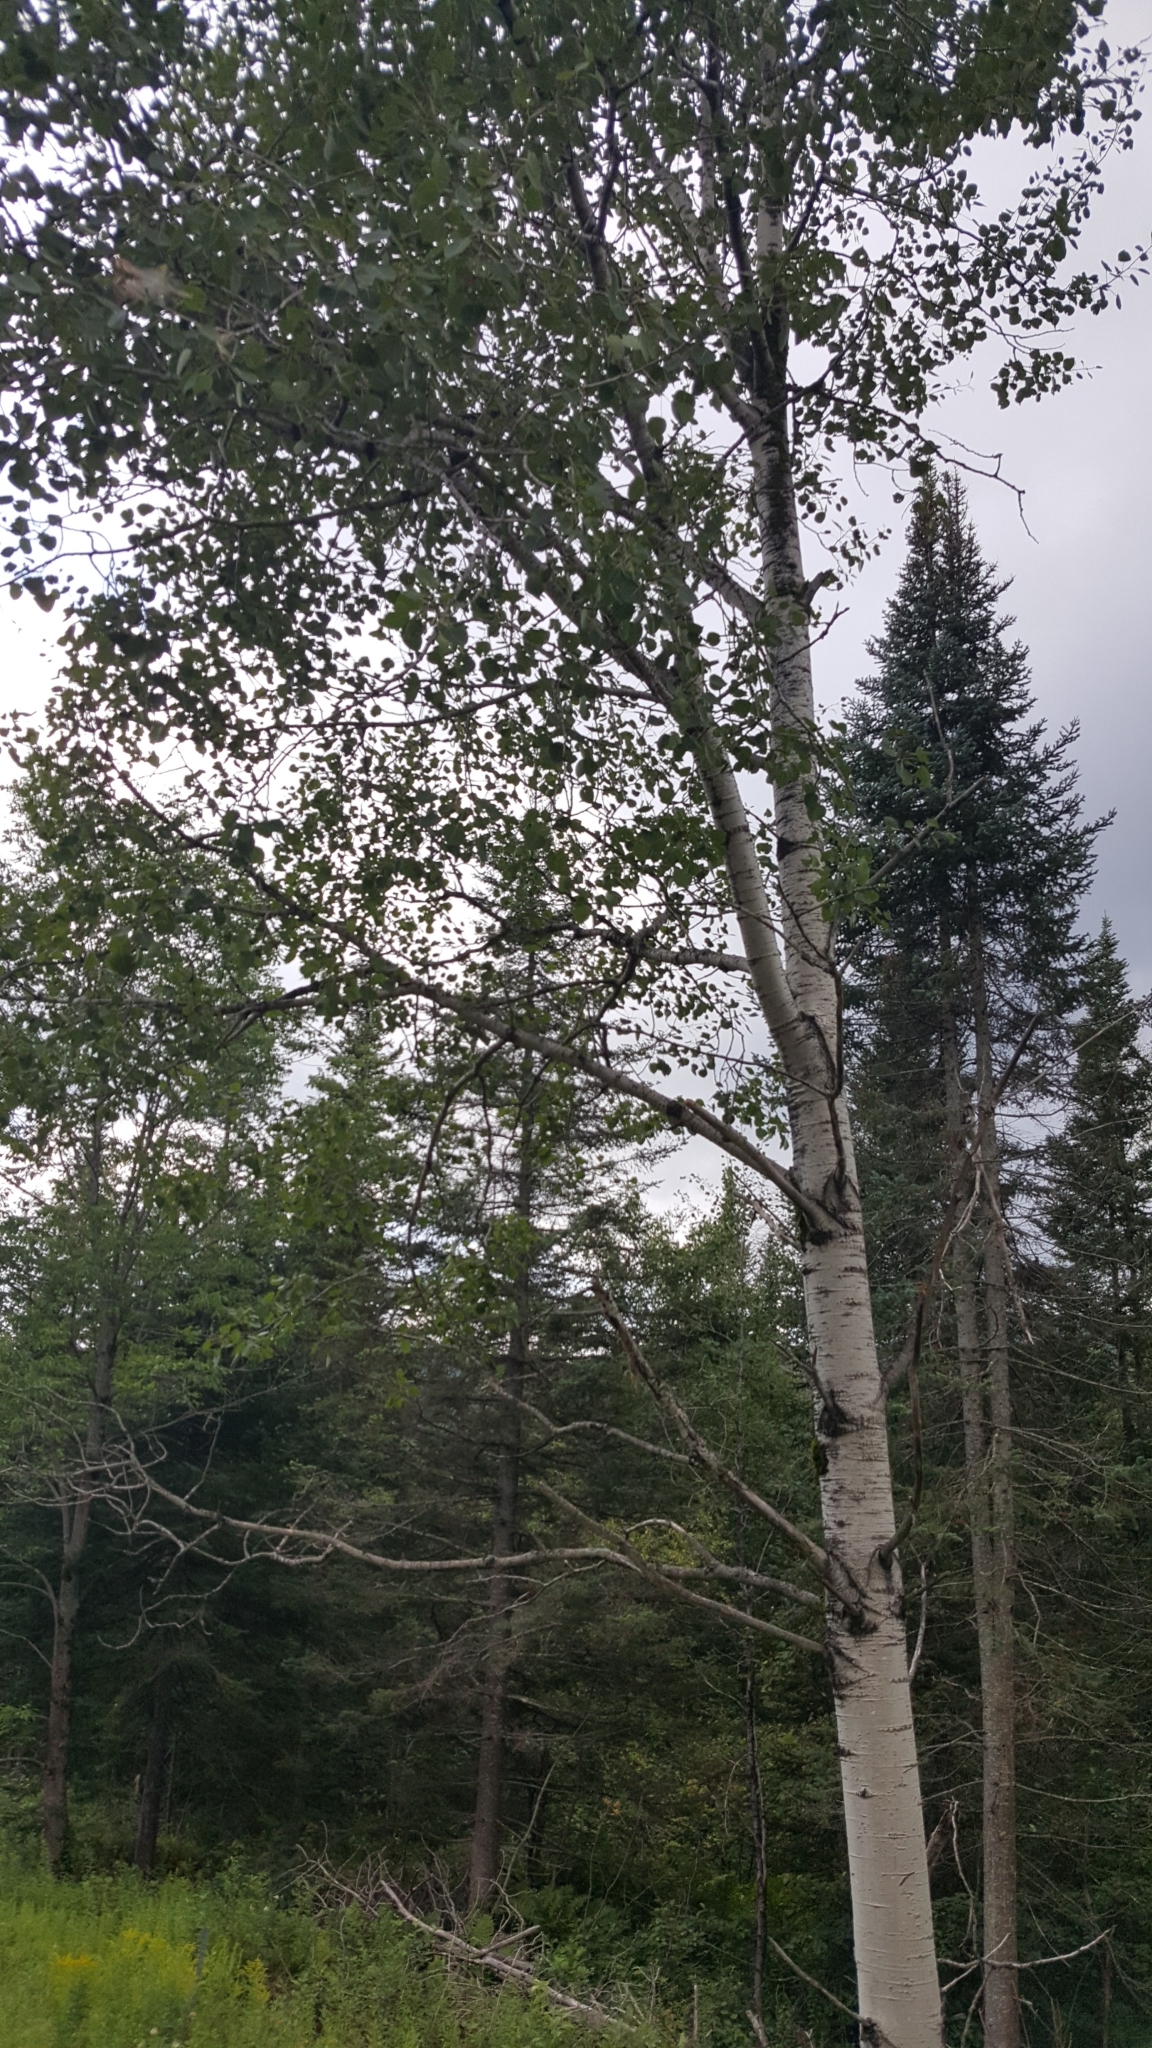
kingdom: Plantae
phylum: Tracheophyta
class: Magnoliopsida
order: Malpighiales
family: Salicaceae
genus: Populus
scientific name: Populus tremuloides
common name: Quaking aspen
